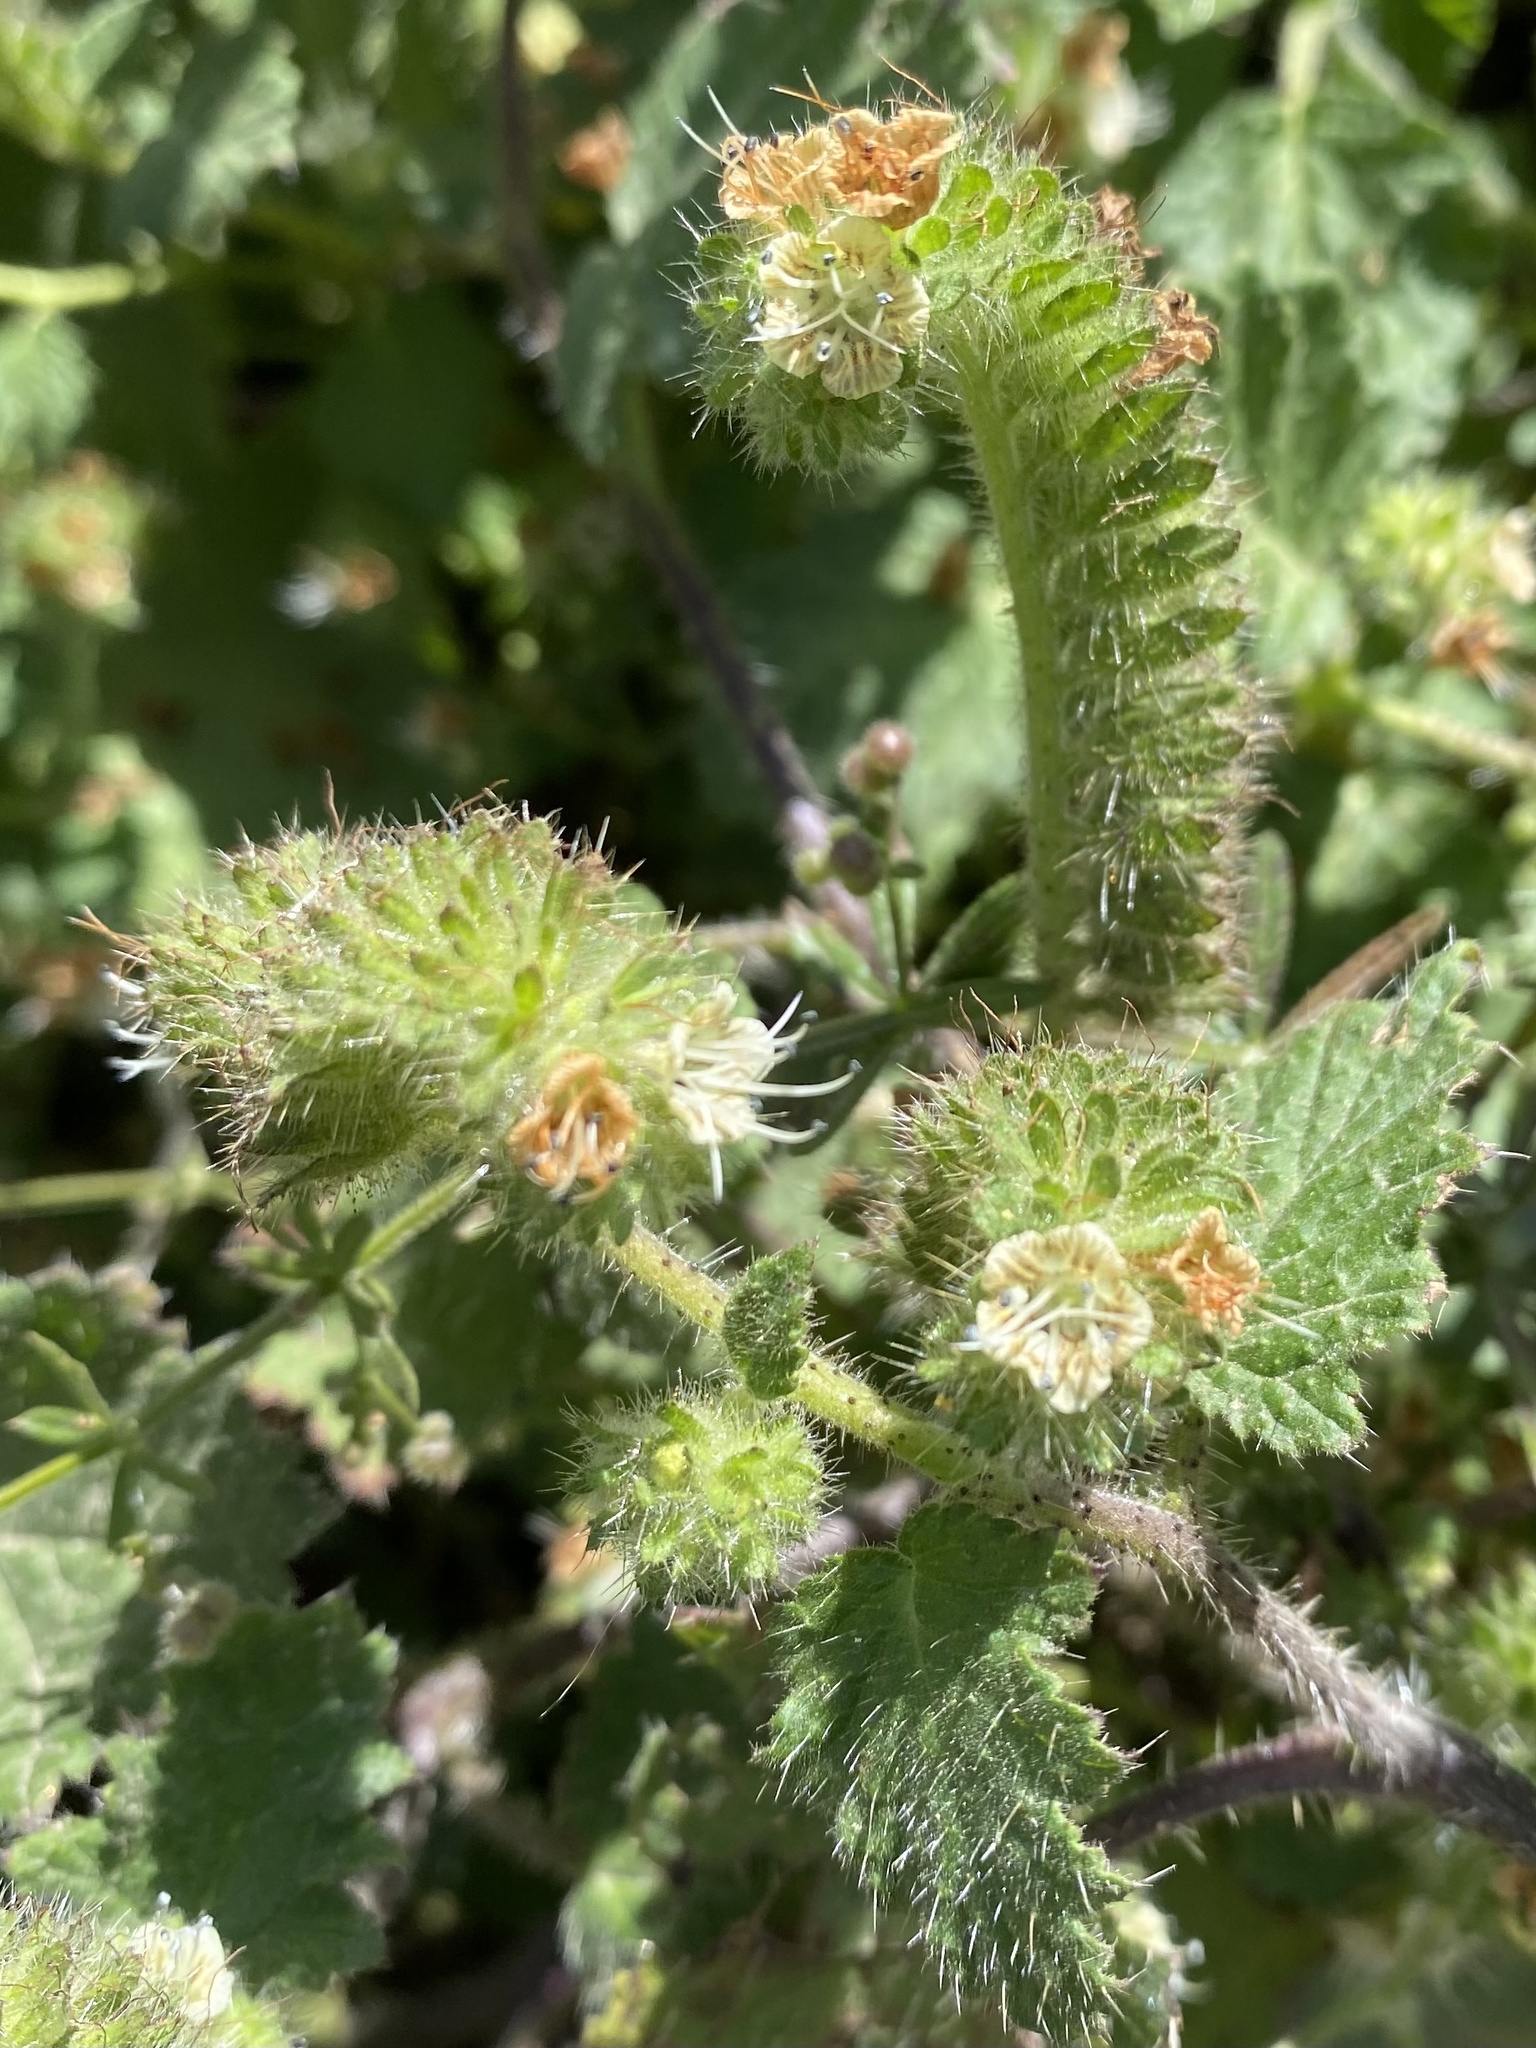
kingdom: Plantae
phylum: Tracheophyta
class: Magnoliopsida
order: Boraginales
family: Hydrophyllaceae
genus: Phacelia
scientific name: Phacelia malvifolia
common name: Mallow-leaf phacelia
